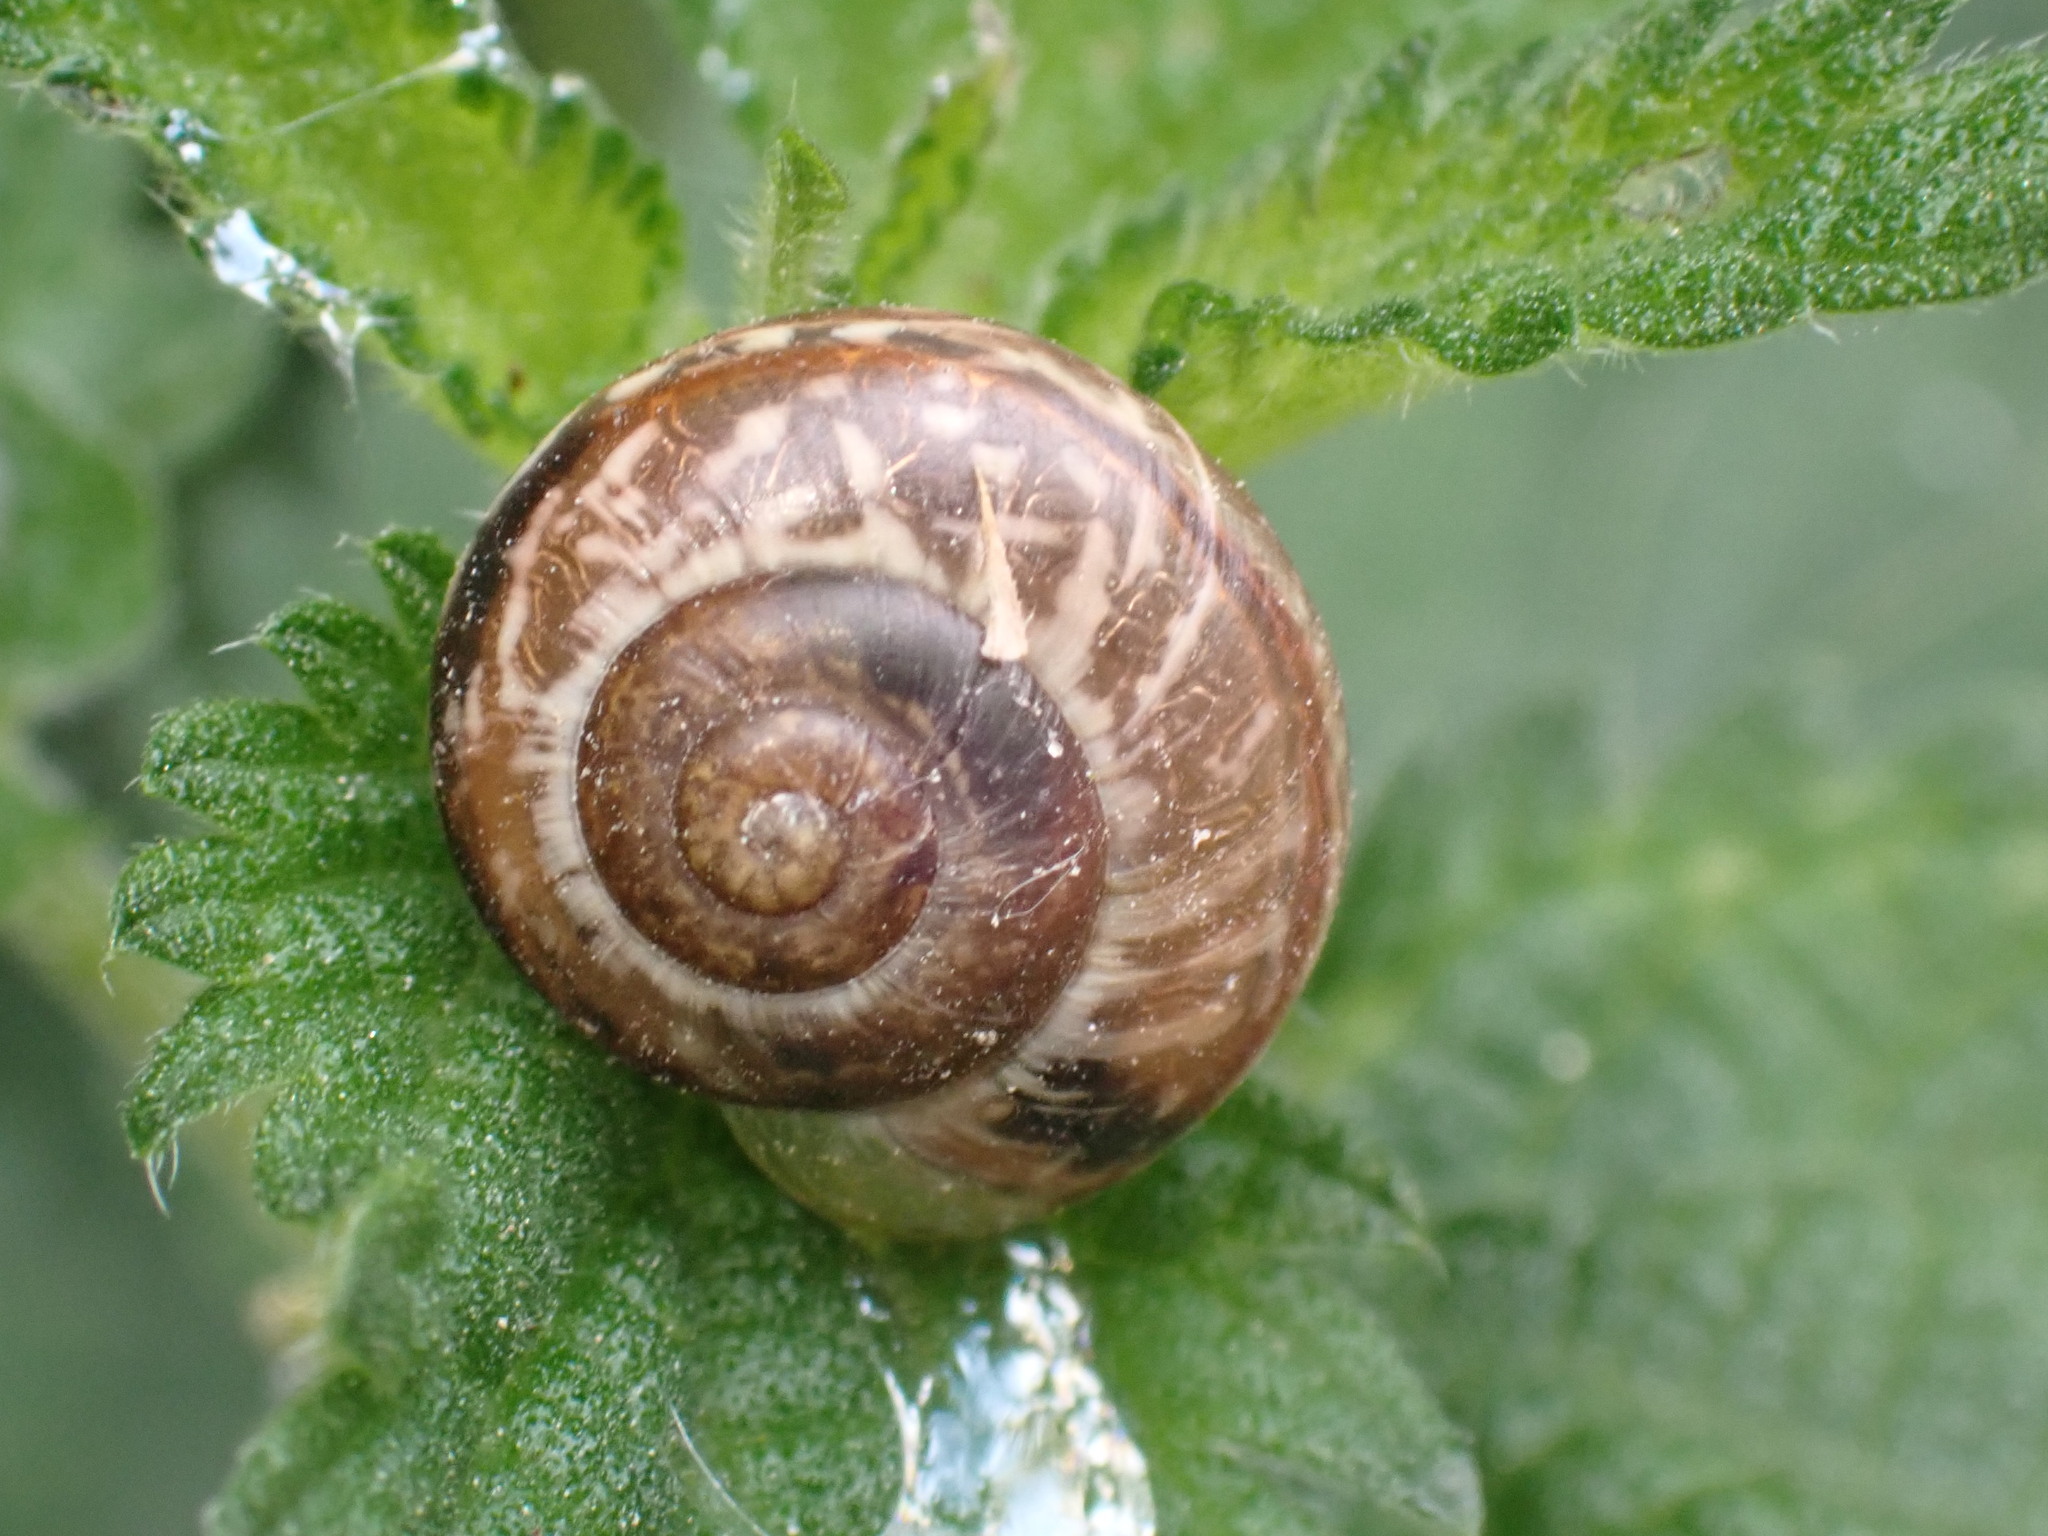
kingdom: Animalia
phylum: Mollusca
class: Gastropoda
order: Stylommatophora
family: Helicidae
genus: Arianta
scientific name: Arianta arbustorum
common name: Copse snail
